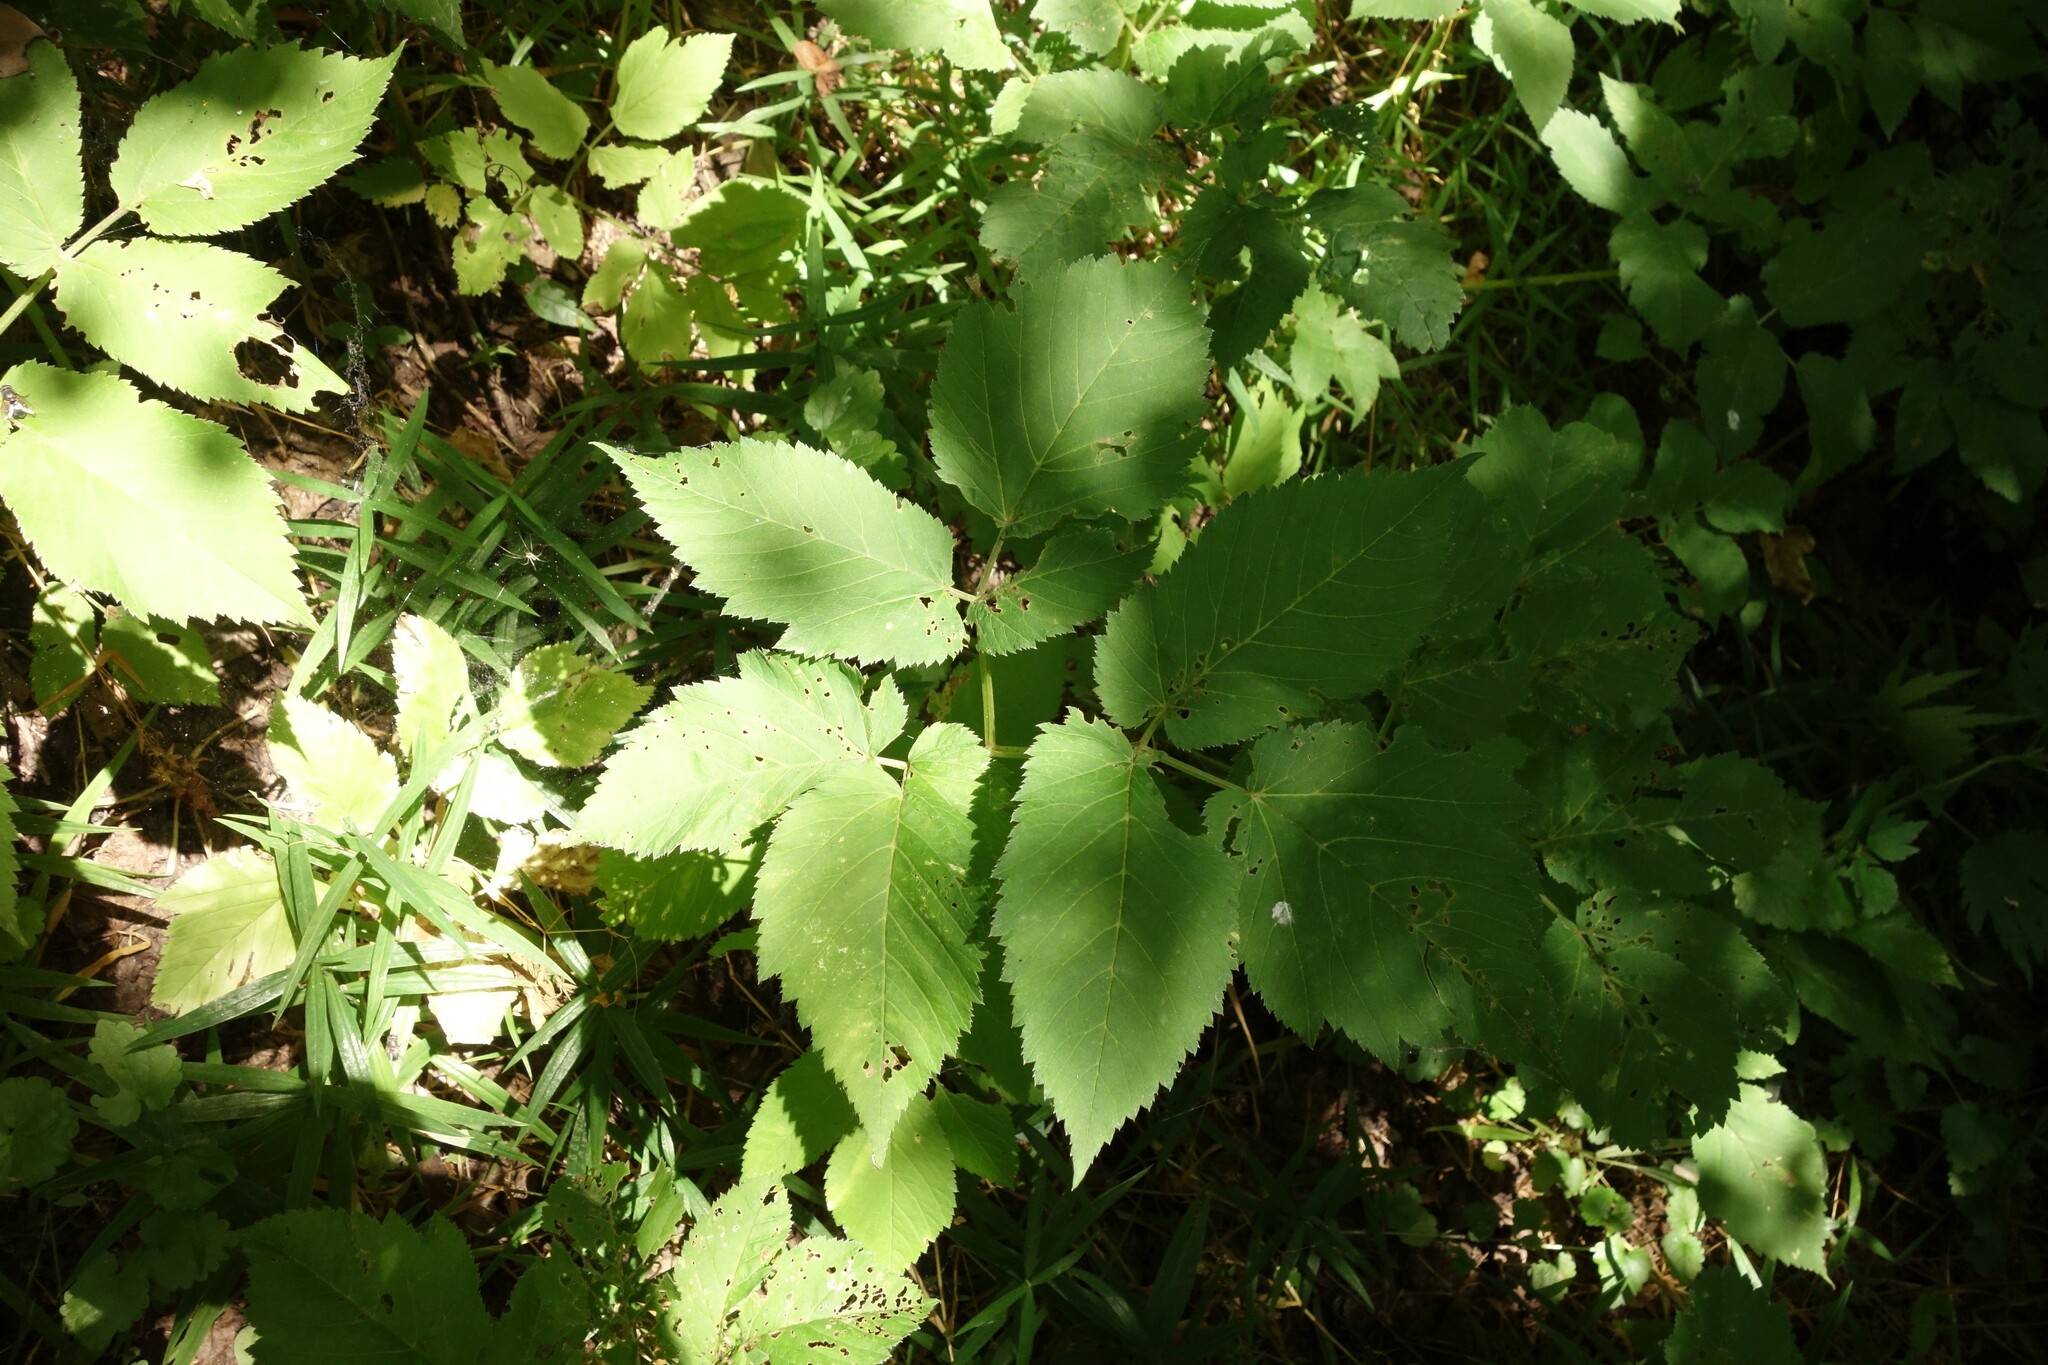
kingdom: Plantae
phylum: Tracheophyta
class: Magnoliopsida
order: Apiales
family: Apiaceae
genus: Aegopodium
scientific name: Aegopodium podagraria
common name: Ground-elder
